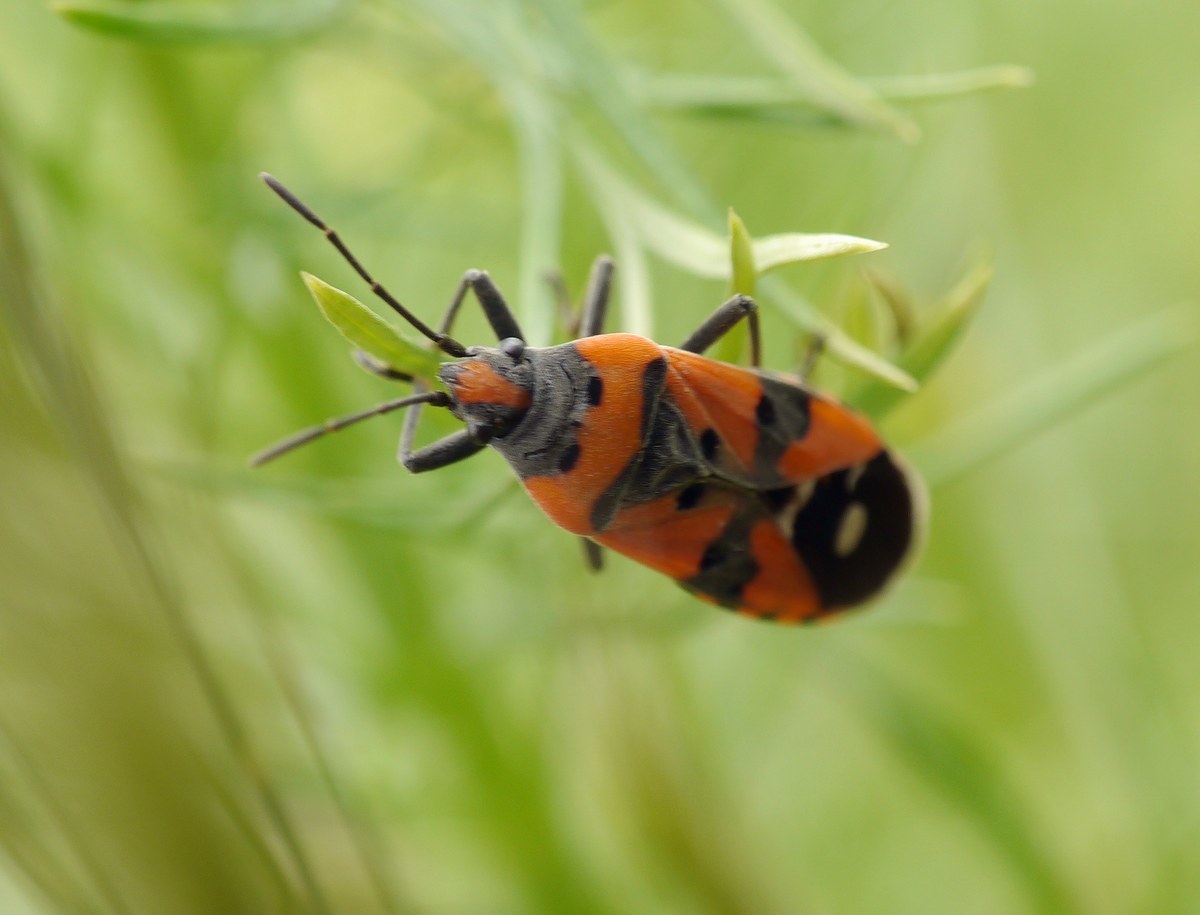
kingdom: Animalia
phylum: Arthropoda
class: Insecta
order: Hemiptera
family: Lygaeidae
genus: Lygaeus
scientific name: Lygaeus equestris
